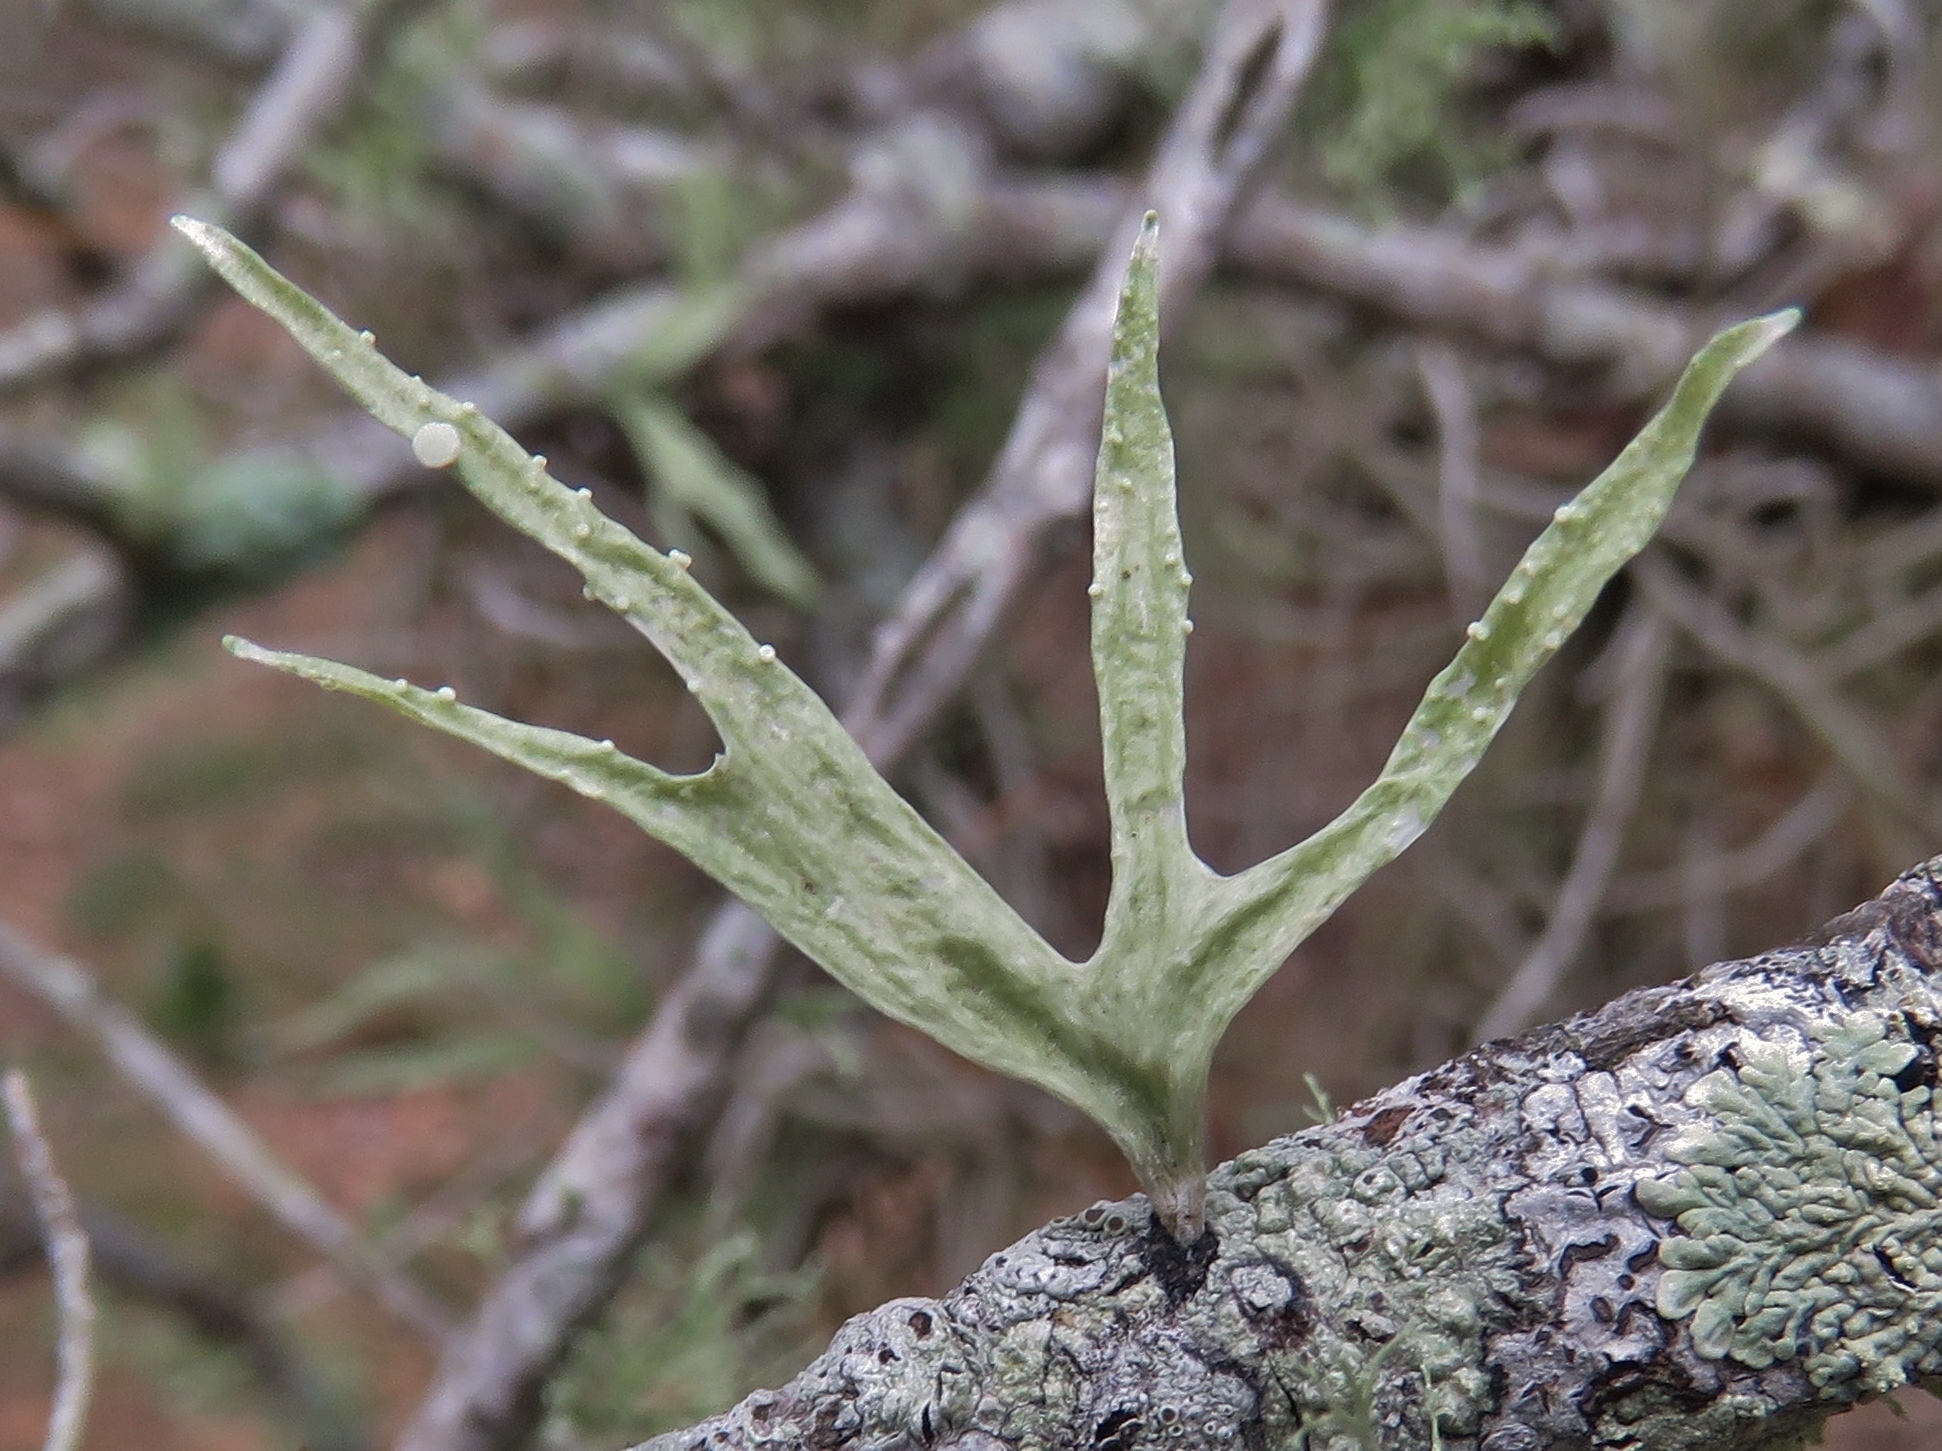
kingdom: Fungi
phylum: Ascomycota
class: Lecanoromycetes
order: Lecanorales
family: Ramalinaceae
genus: Ramalina
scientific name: Ramalina celastri
